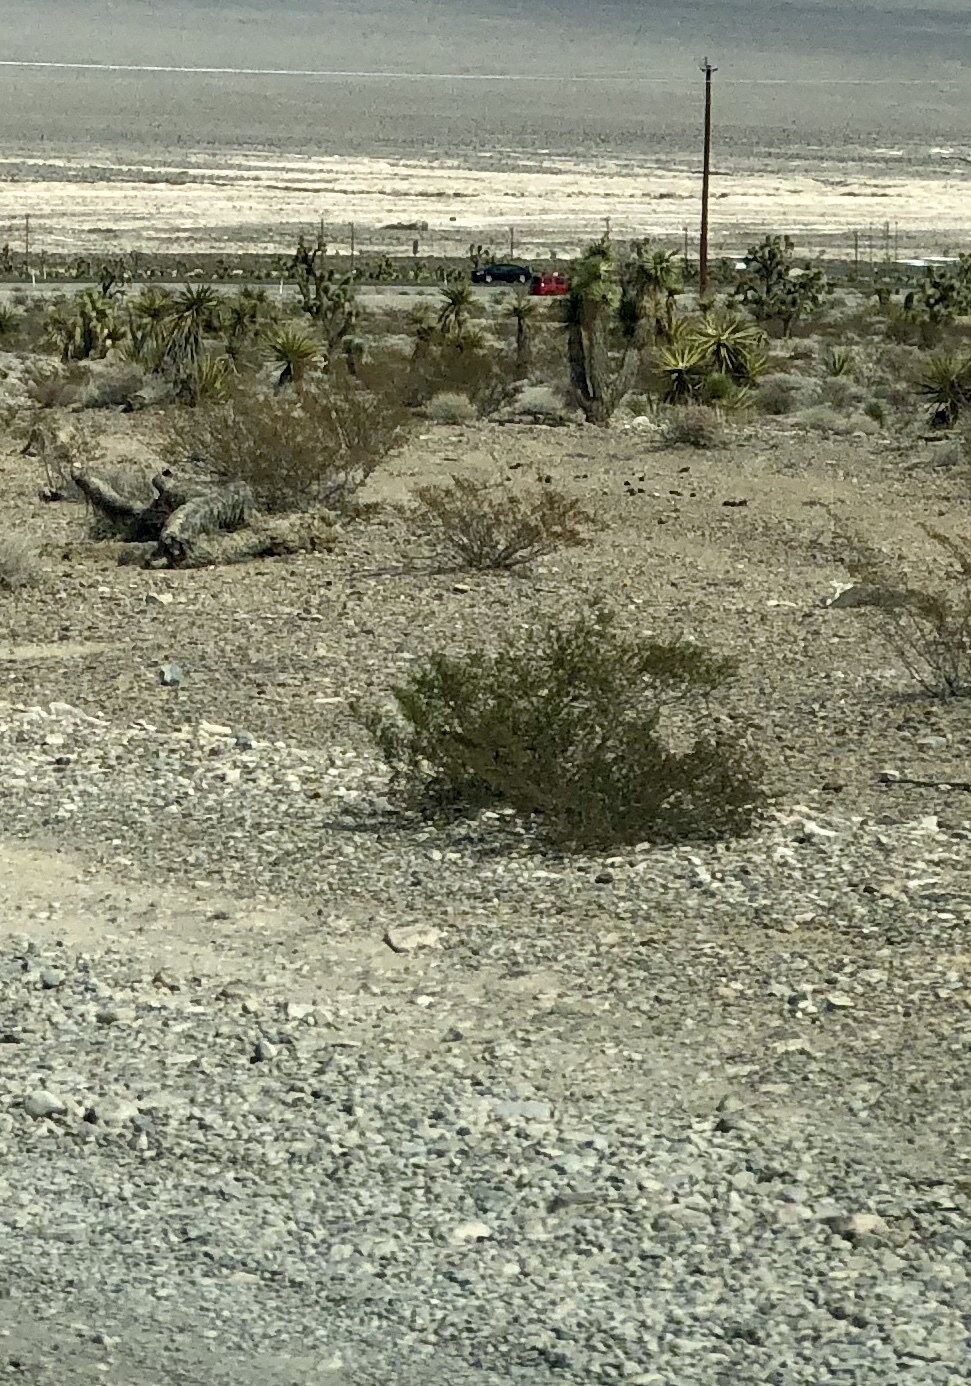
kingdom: Plantae
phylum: Tracheophyta
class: Magnoliopsida
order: Zygophyllales
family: Zygophyllaceae
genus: Larrea
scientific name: Larrea tridentata
